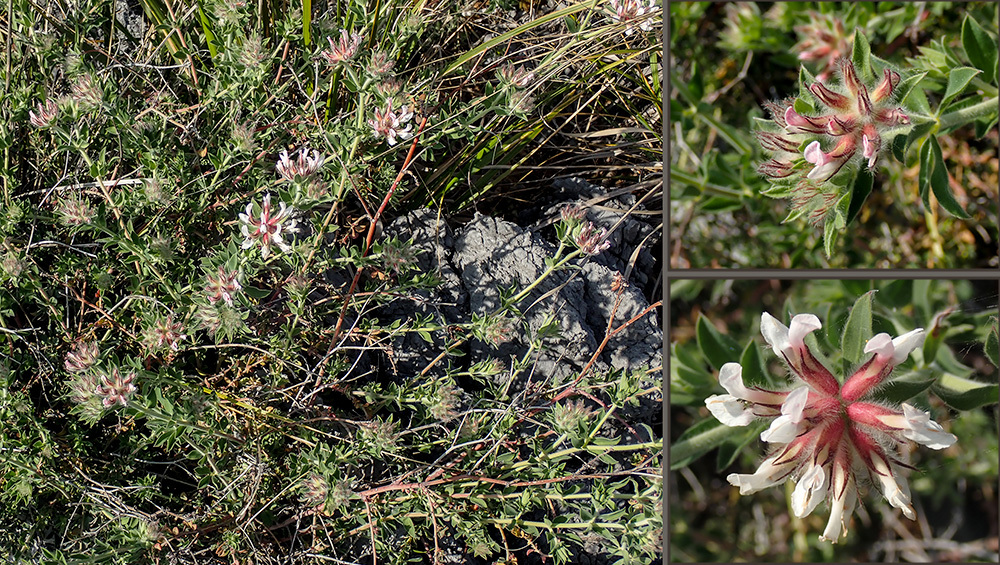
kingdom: Plantae
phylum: Tracheophyta
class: Magnoliopsida
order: Fabales
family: Fabaceae
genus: Lotus
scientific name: Lotus hirsutus
